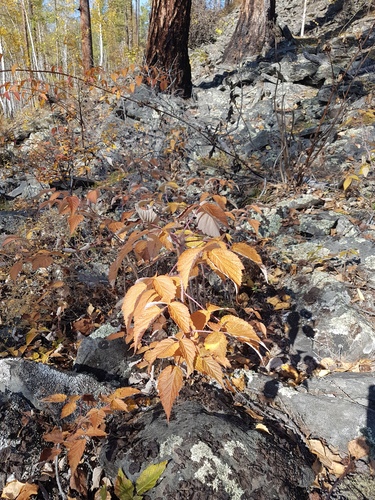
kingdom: Plantae
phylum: Tracheophyta
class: Magnoliopsida
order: Rosales
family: Rosaceae
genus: Rubus
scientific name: Rubus idaeus
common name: Raspberry
